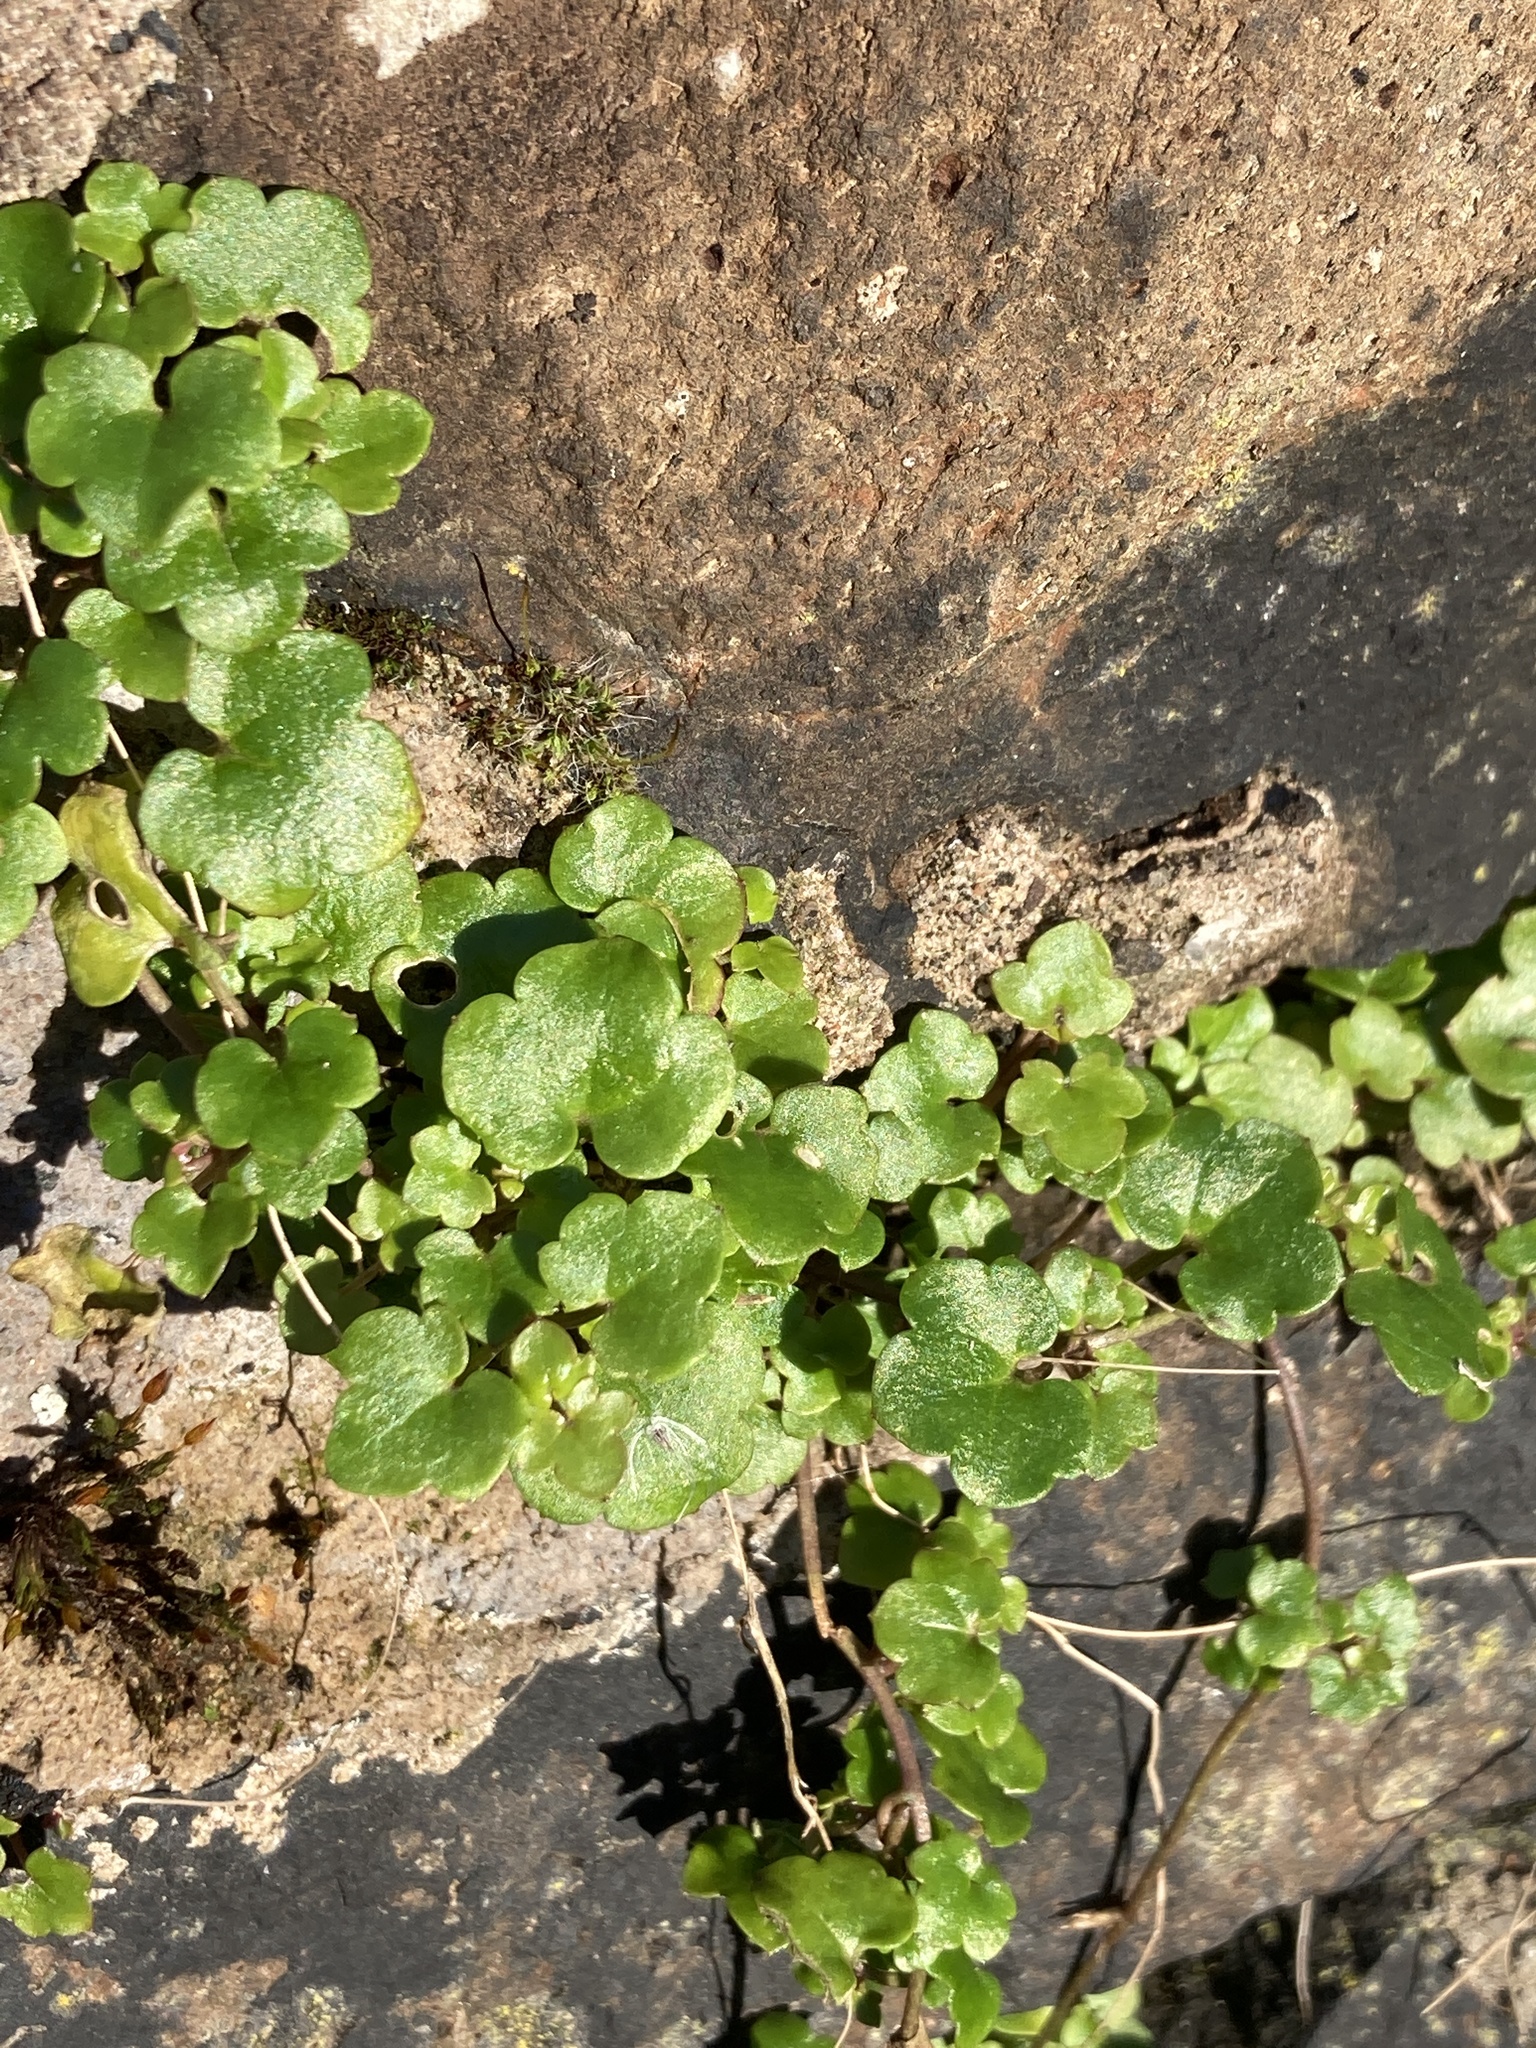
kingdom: Plantae
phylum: Tracheophyta
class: Magnoliopsida
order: Lamiales
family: Plantaginaceae
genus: Cymbalaria
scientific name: Cymbalaria muralis
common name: Ivy-leaved toadflax
